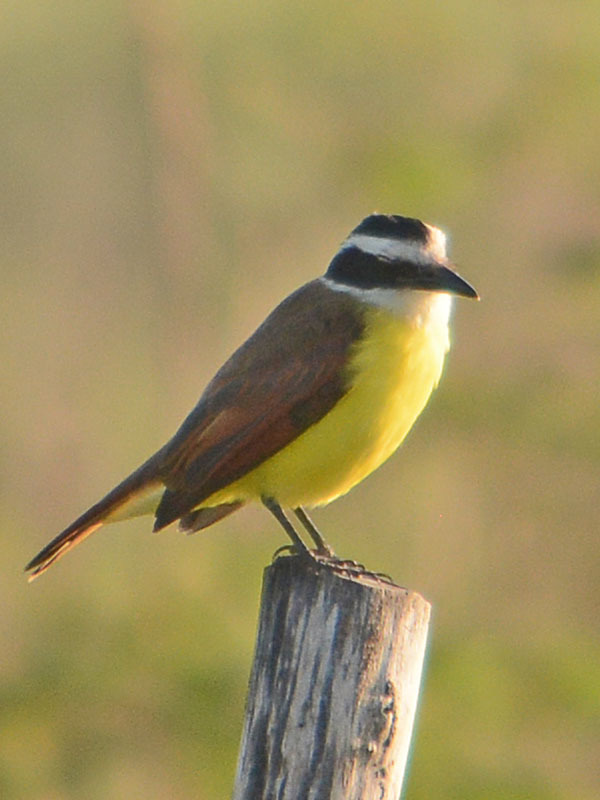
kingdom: Animalia
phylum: Chordata
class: Aves
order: Passeriformes
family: Tyrannidae
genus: Pitangus
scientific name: Pitangus sulphuratus
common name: Great kiskadee
